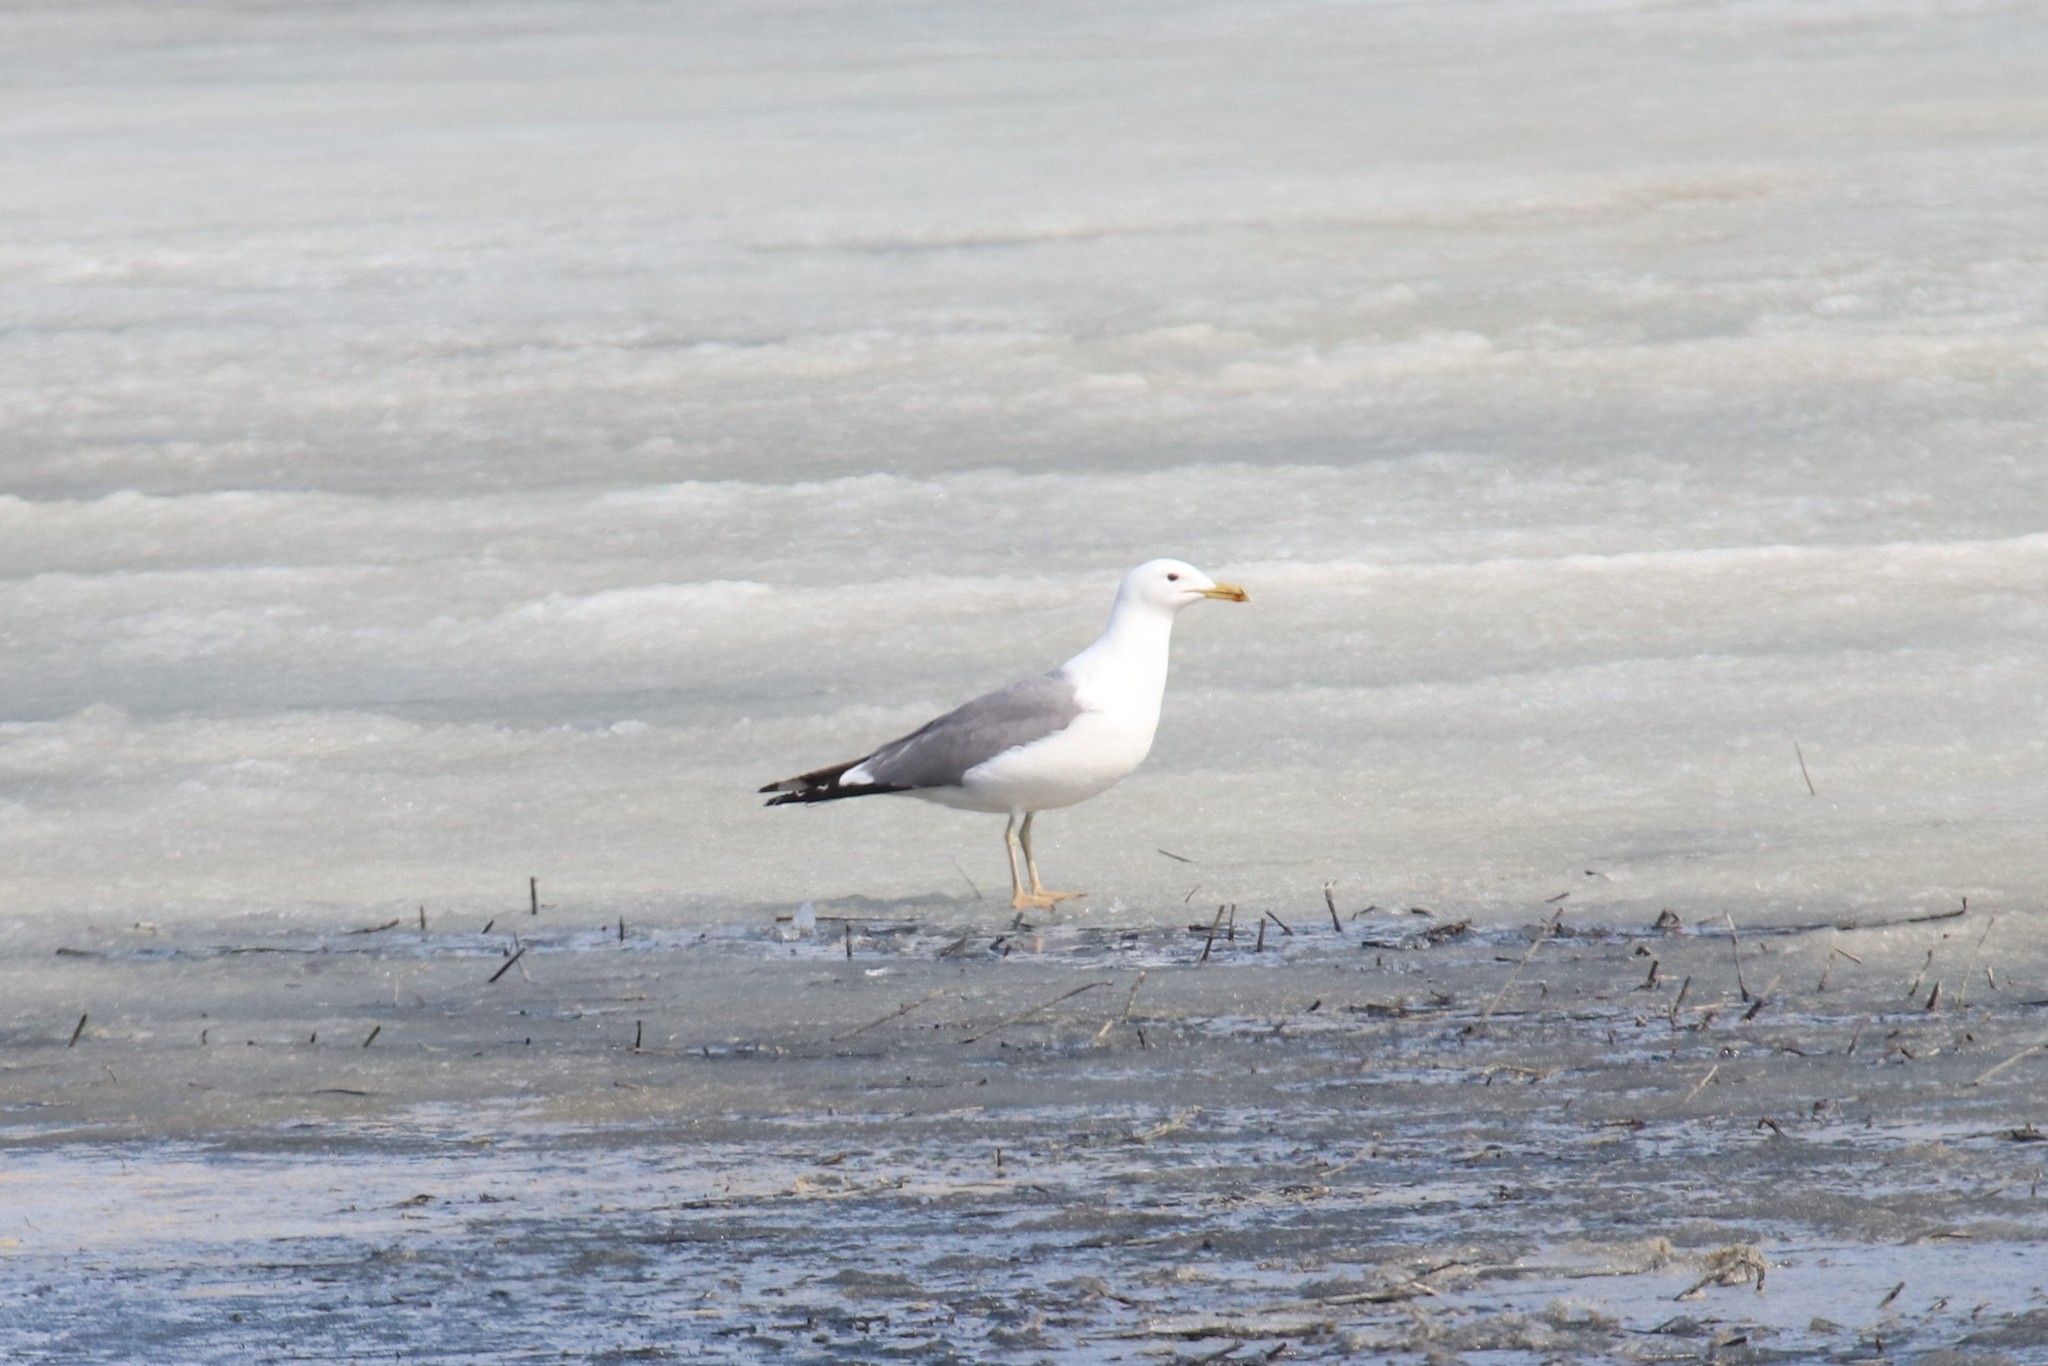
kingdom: Animalia
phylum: Chordata
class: Aves
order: Charadriiformes
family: Laridae
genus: Larus
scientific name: Larus cachinnans
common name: Caspian gull
